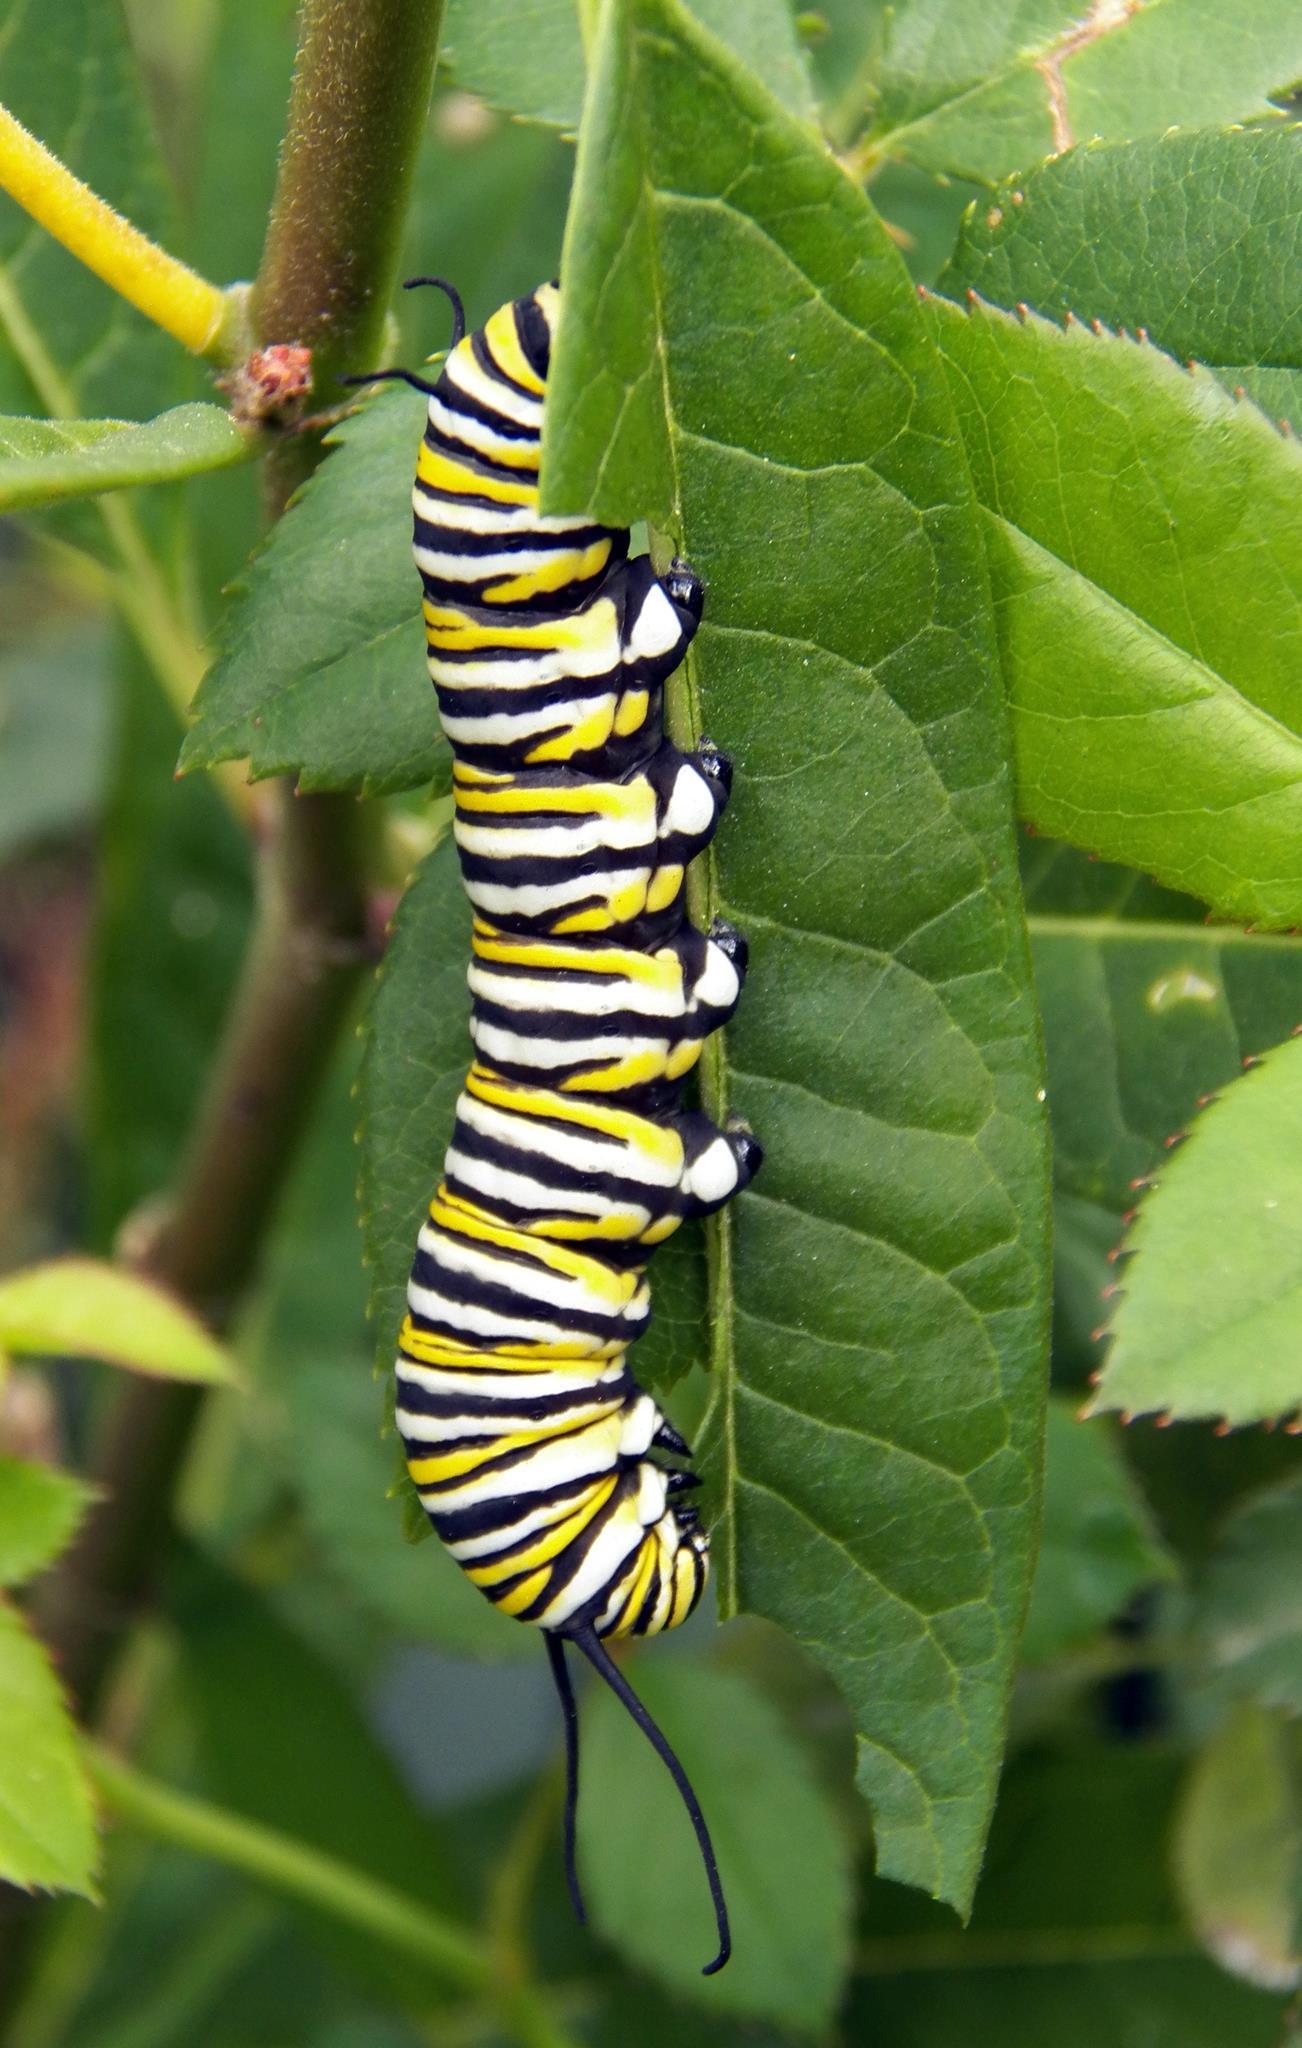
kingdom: Animalia
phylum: Arthropoda
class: Insecta
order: Lepidoptera
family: Nymphalidae
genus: Danaus
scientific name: Danaus plexippus
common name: Monarch
